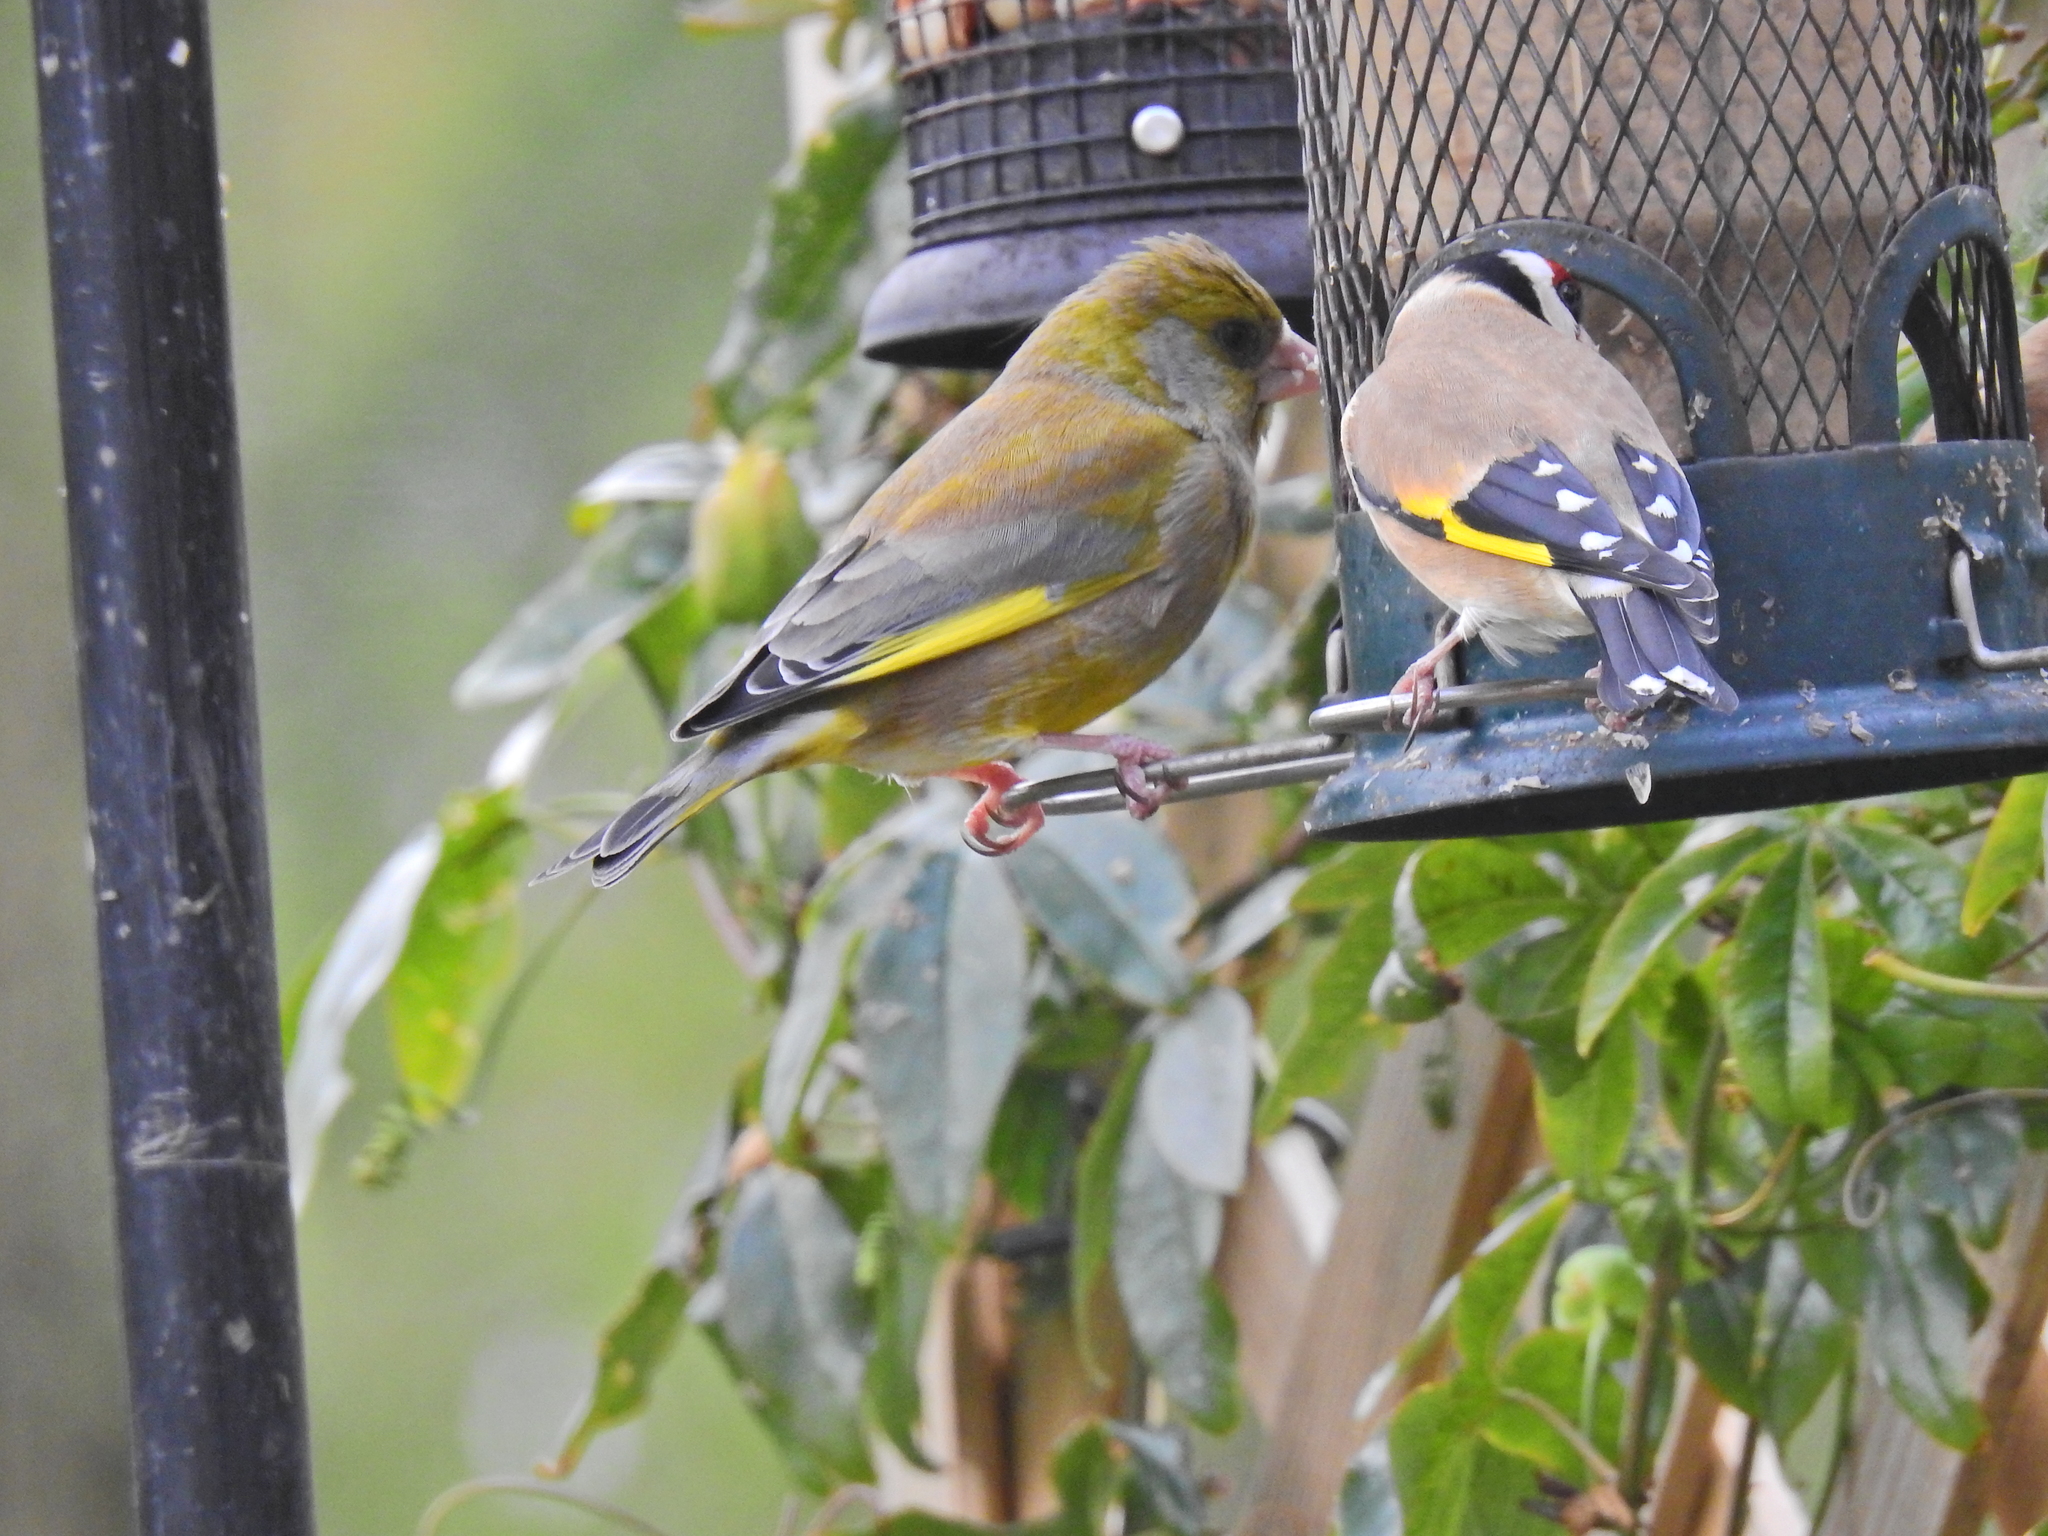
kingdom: Plantae
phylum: Tracheophyta
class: Liliopsida
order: Poales
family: Poaceae
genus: Chloris
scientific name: Chloris chloris
